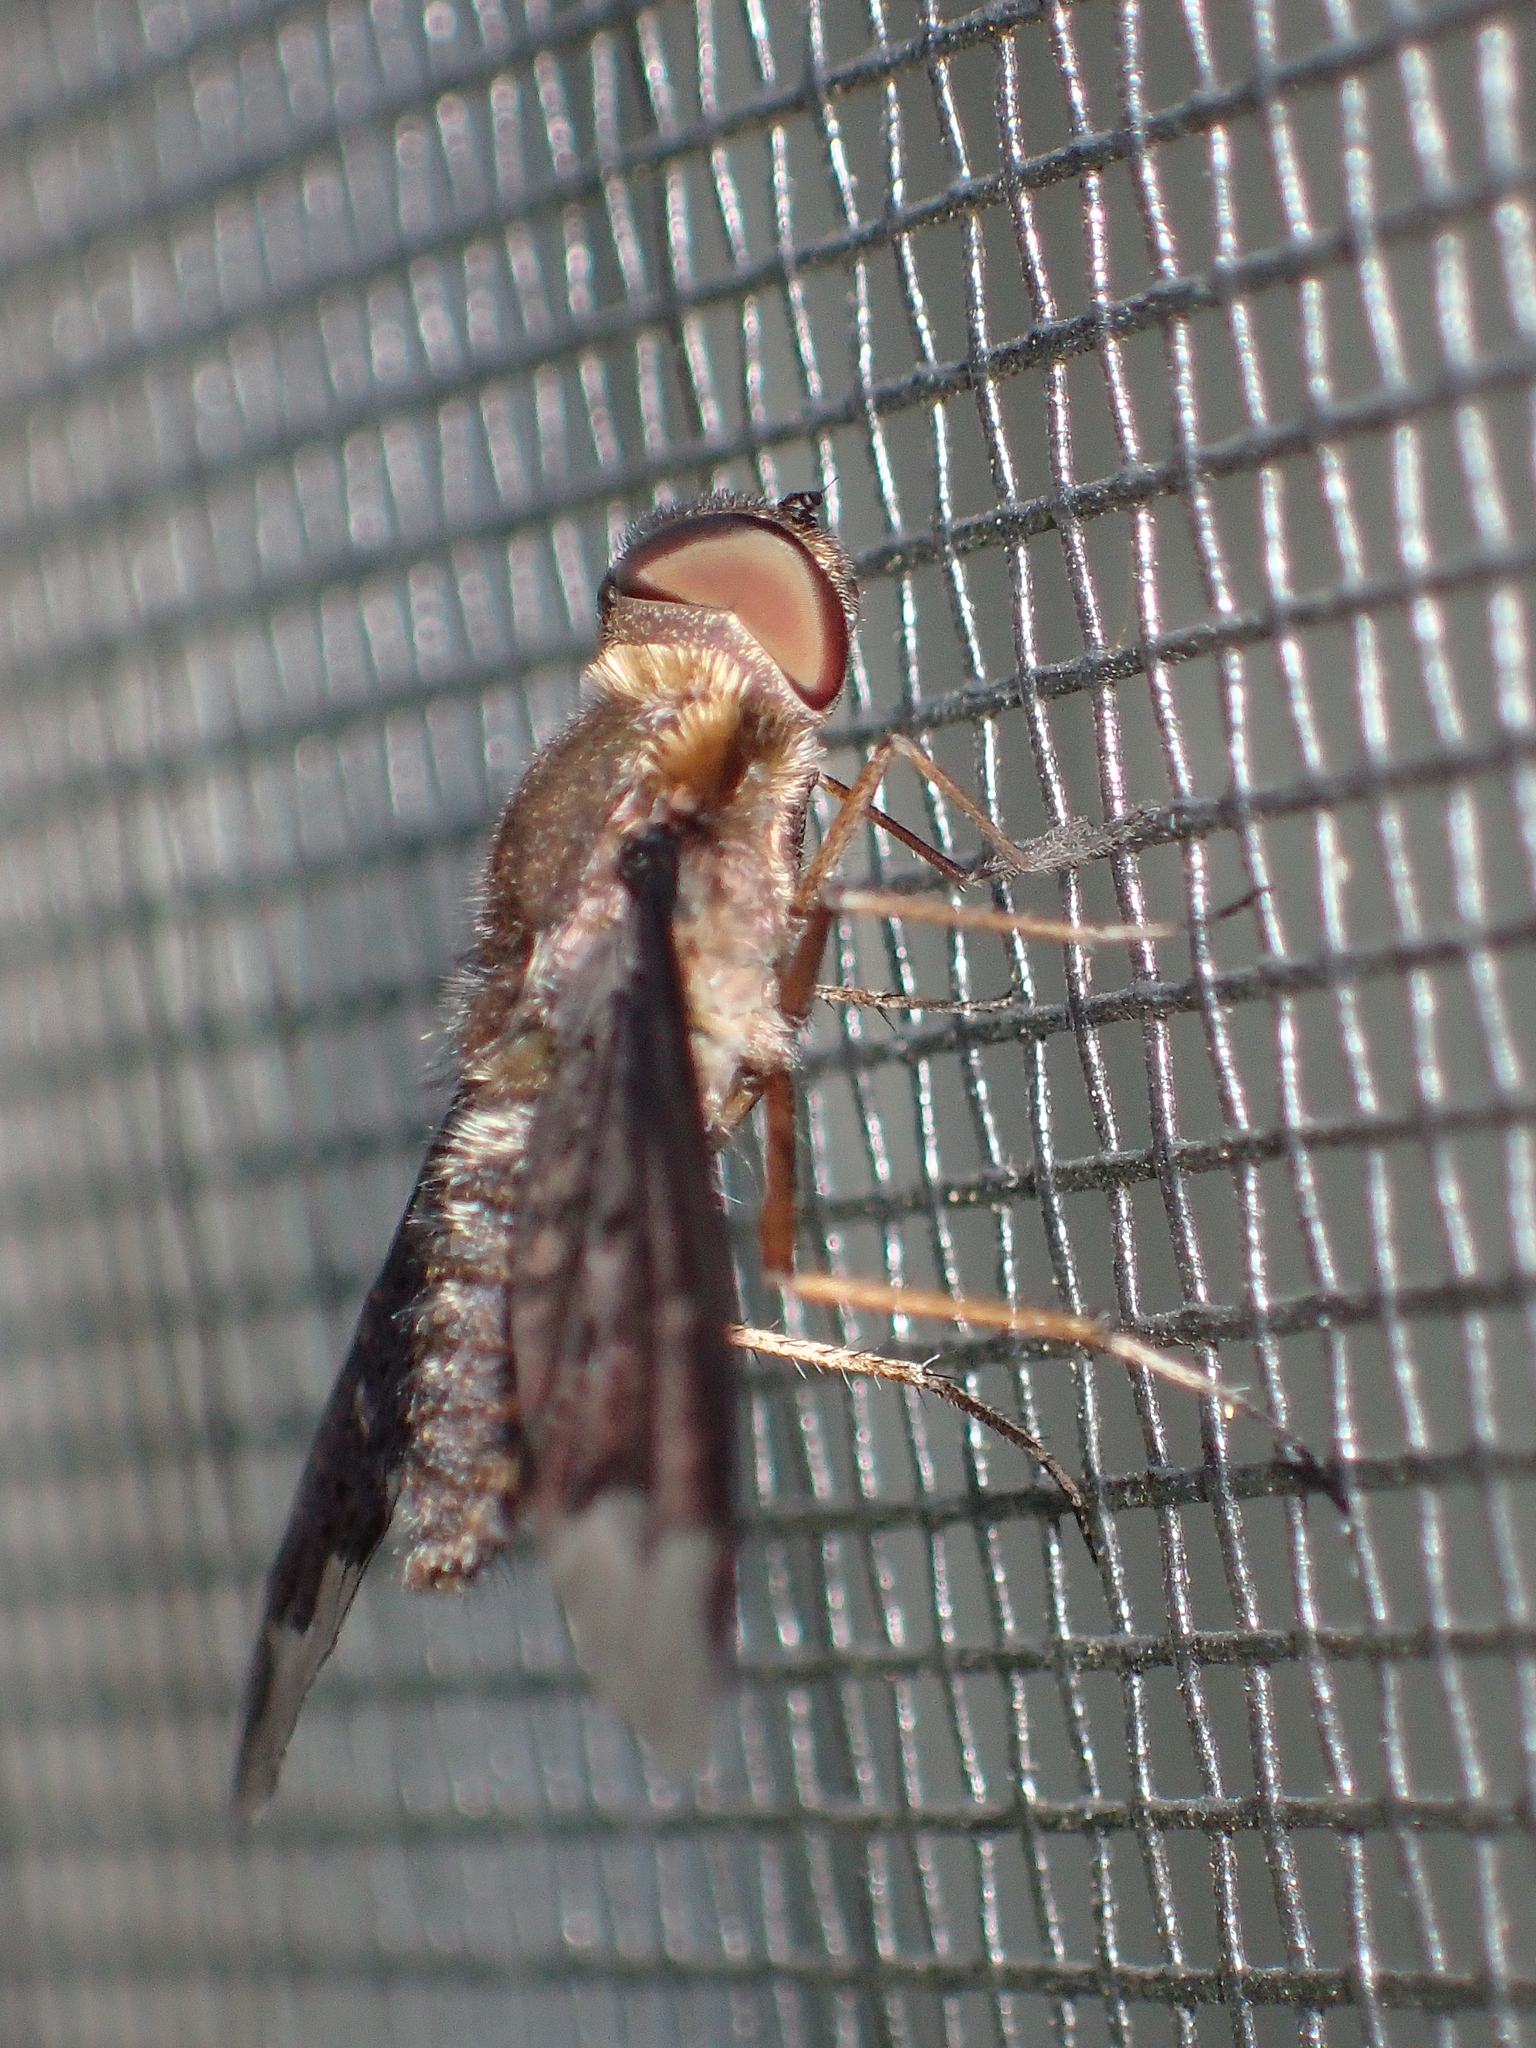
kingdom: Animalia
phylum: Arthropoda
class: Insecta
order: Diptera
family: Bombyliidae
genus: Hemipenthes
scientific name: Hemipenthes sinuosus
